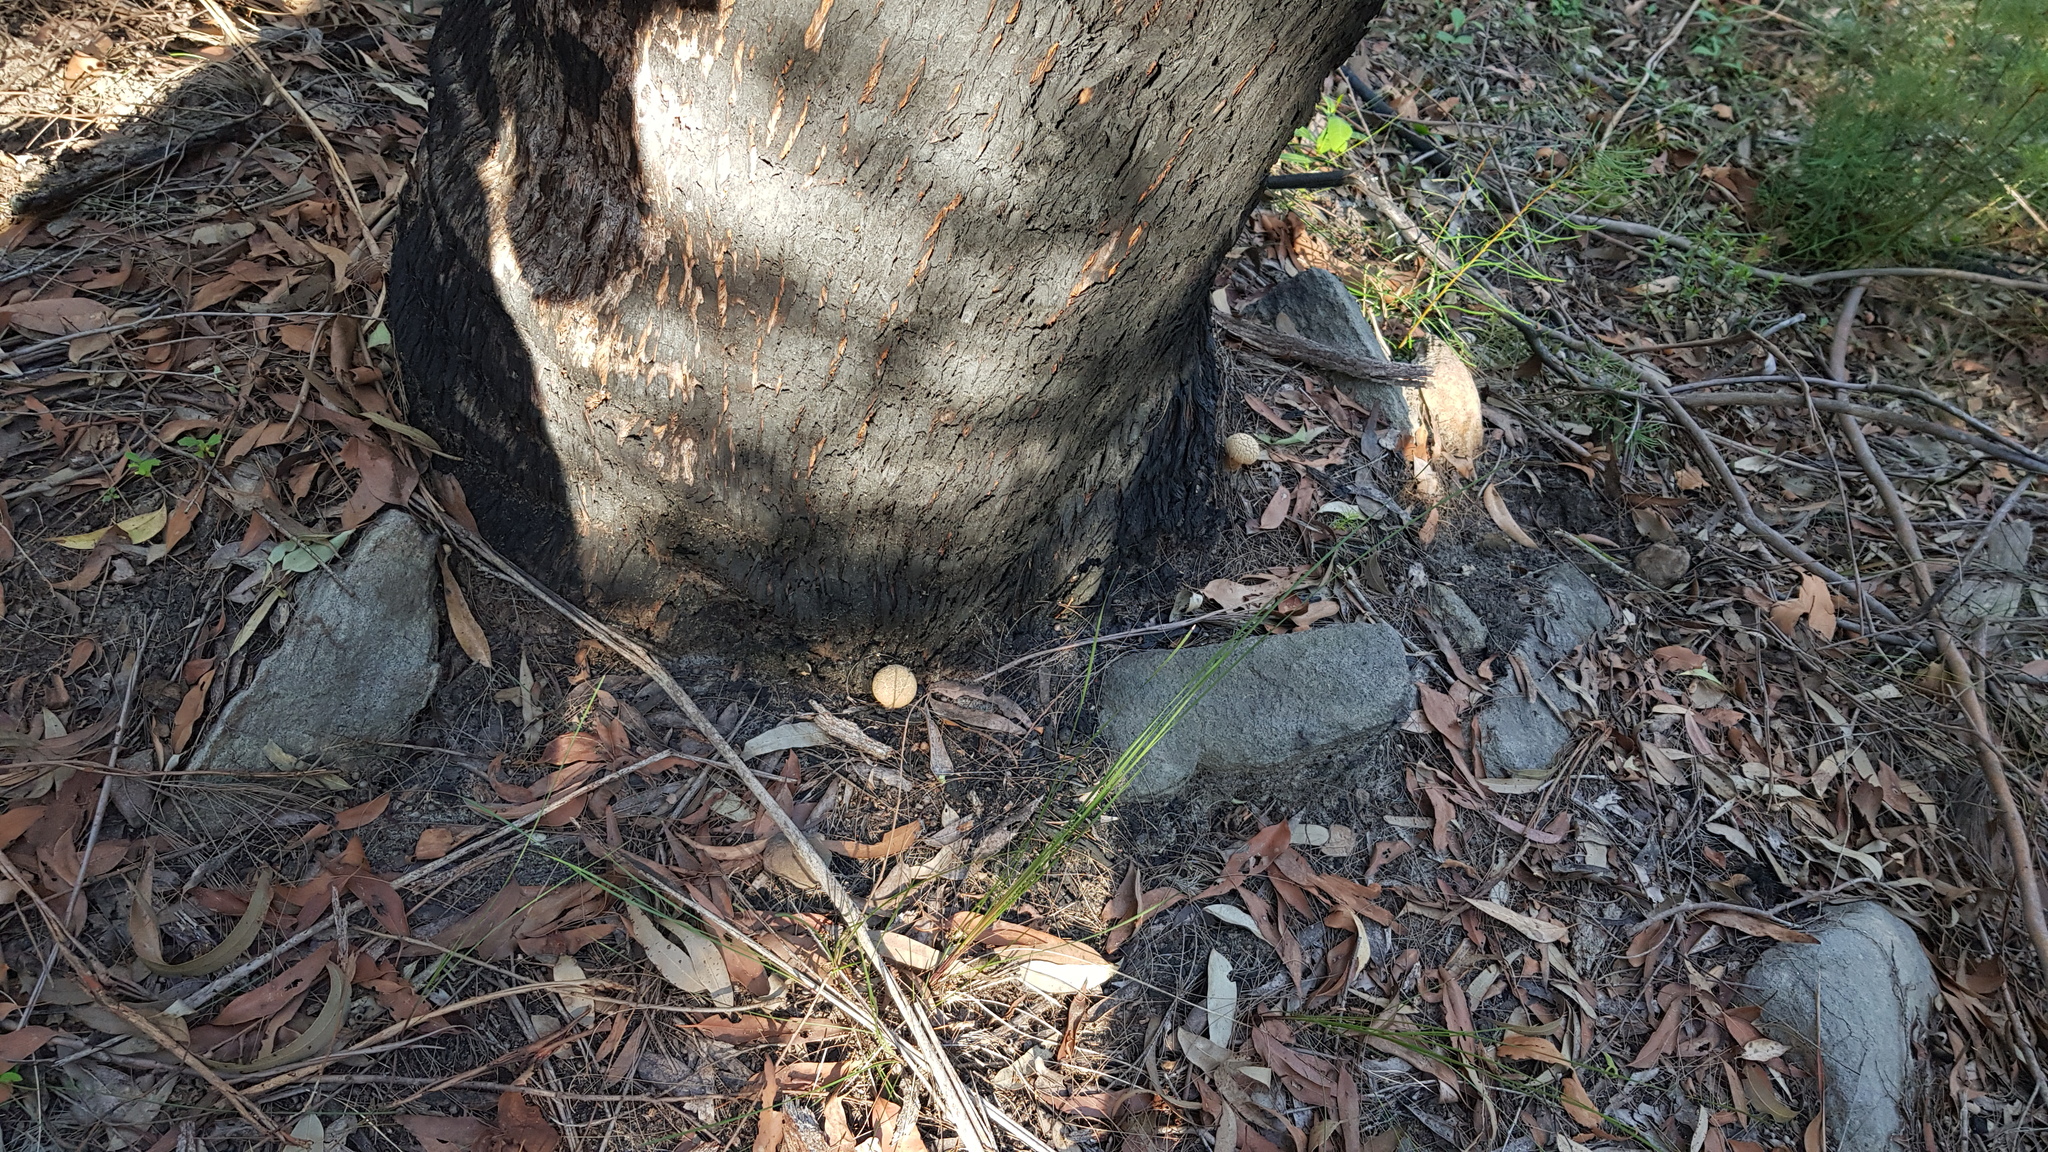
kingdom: Fungi
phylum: Basidiomycota
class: Agaricomycetes
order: Boletales
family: Boletaceae
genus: Boletellus
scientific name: Boletellus dissiliens
